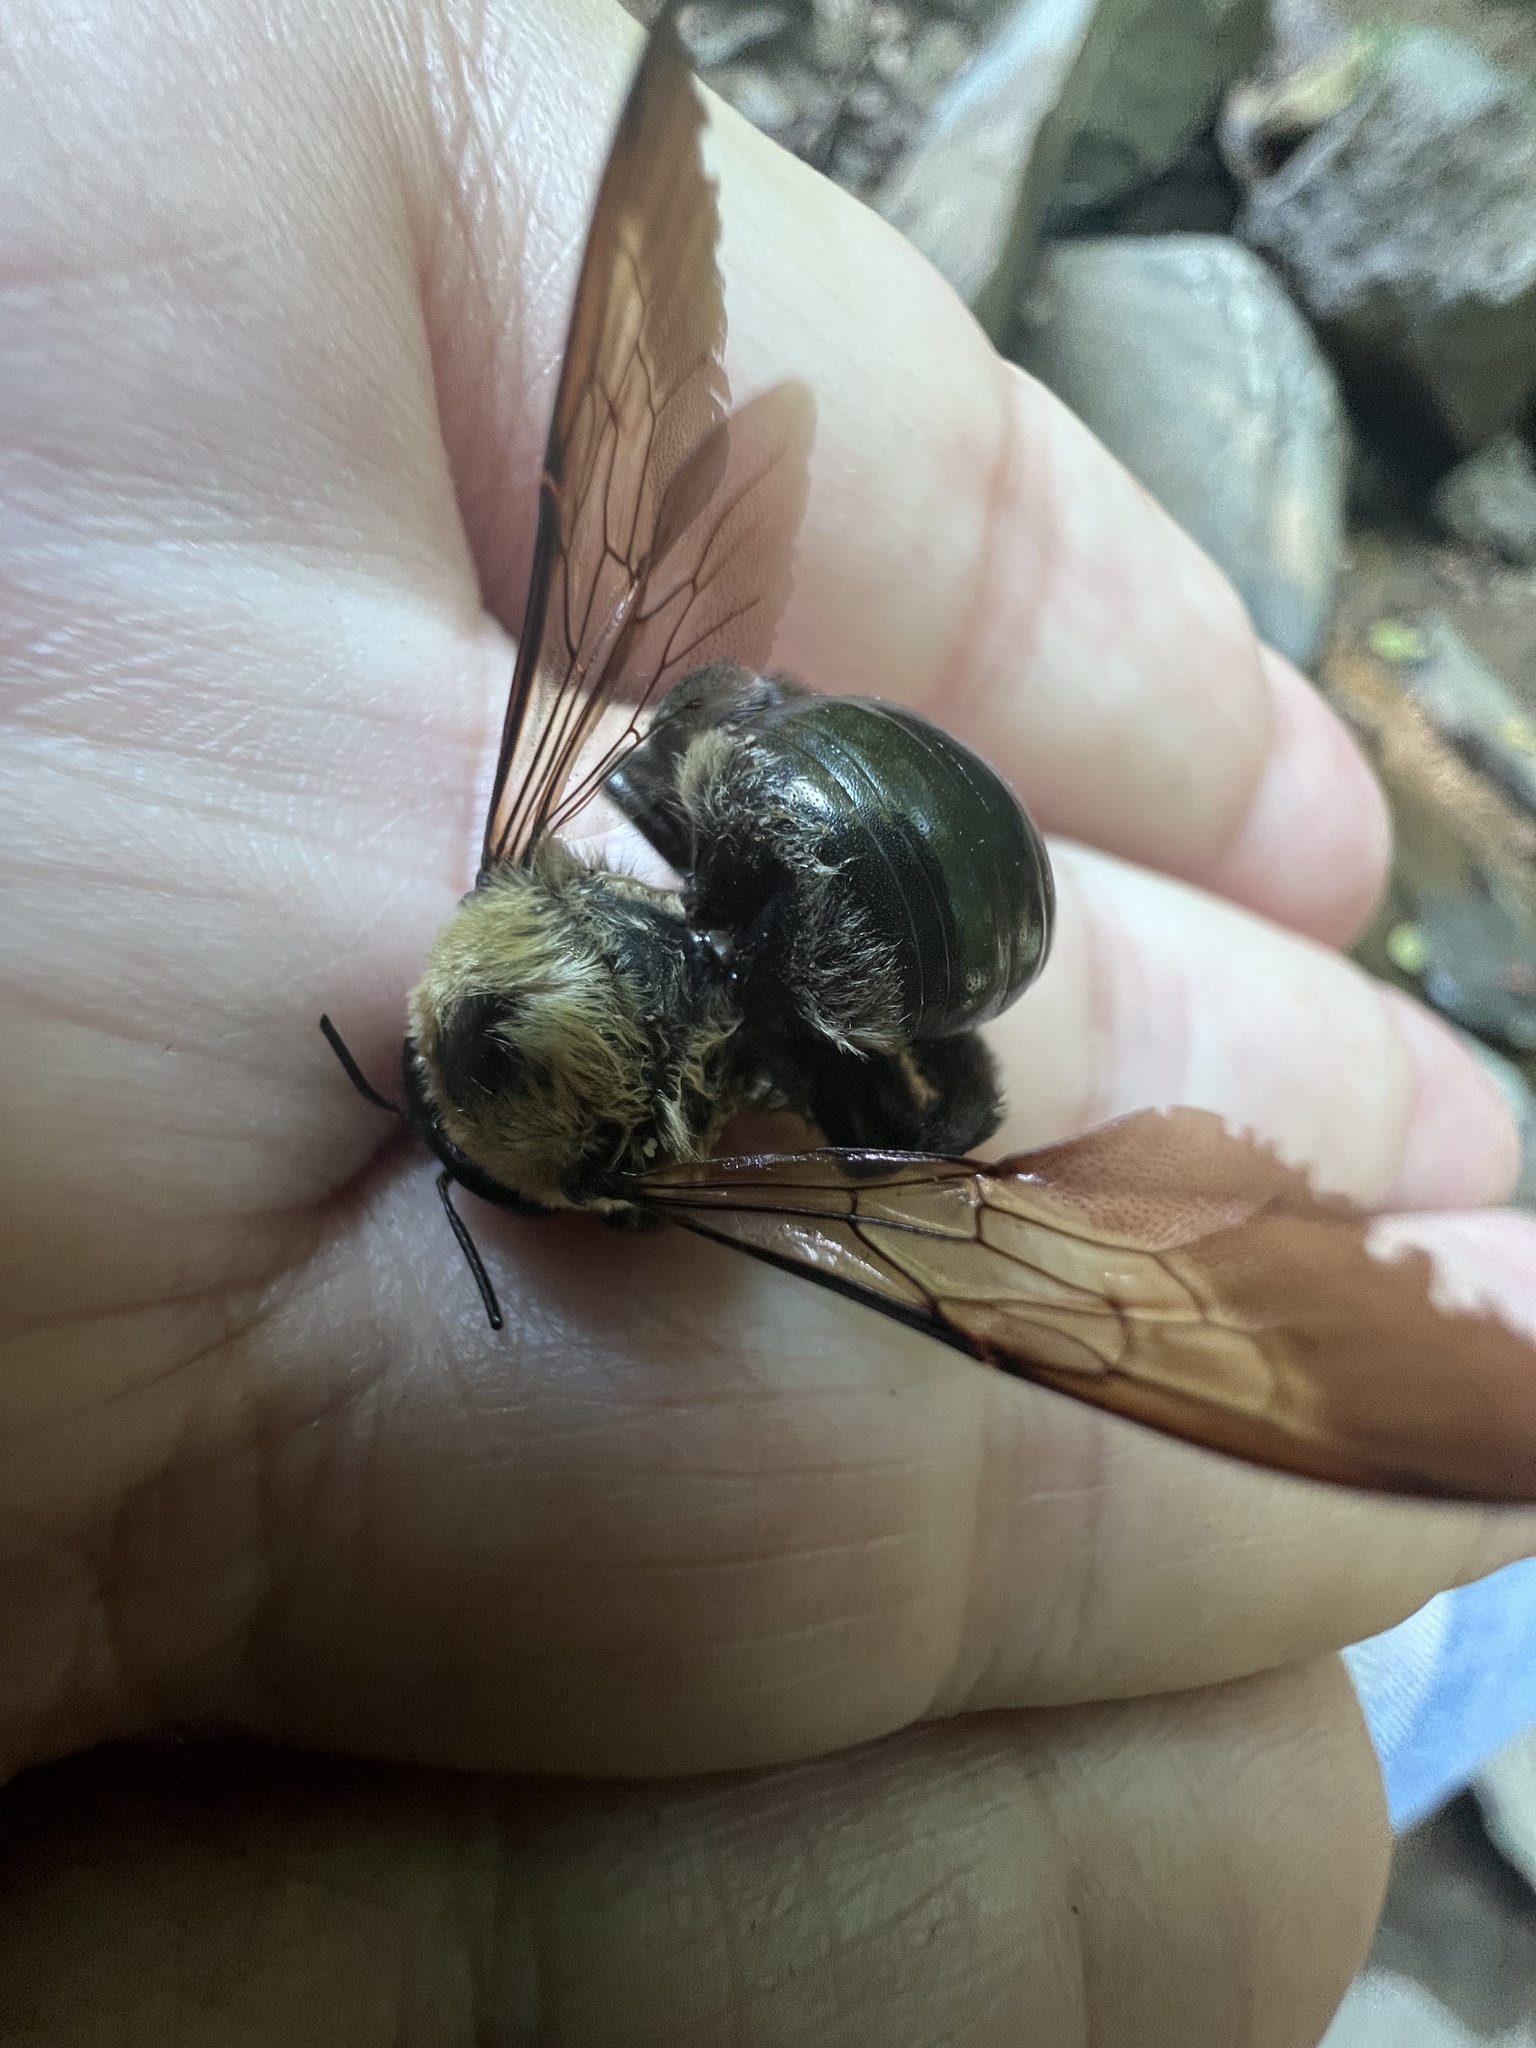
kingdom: Animalia
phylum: Arthropoda
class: Insecta
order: Hymenoptera
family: Apidae
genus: Xylocopa
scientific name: Xylocopa virginica
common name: Carpenter bee
